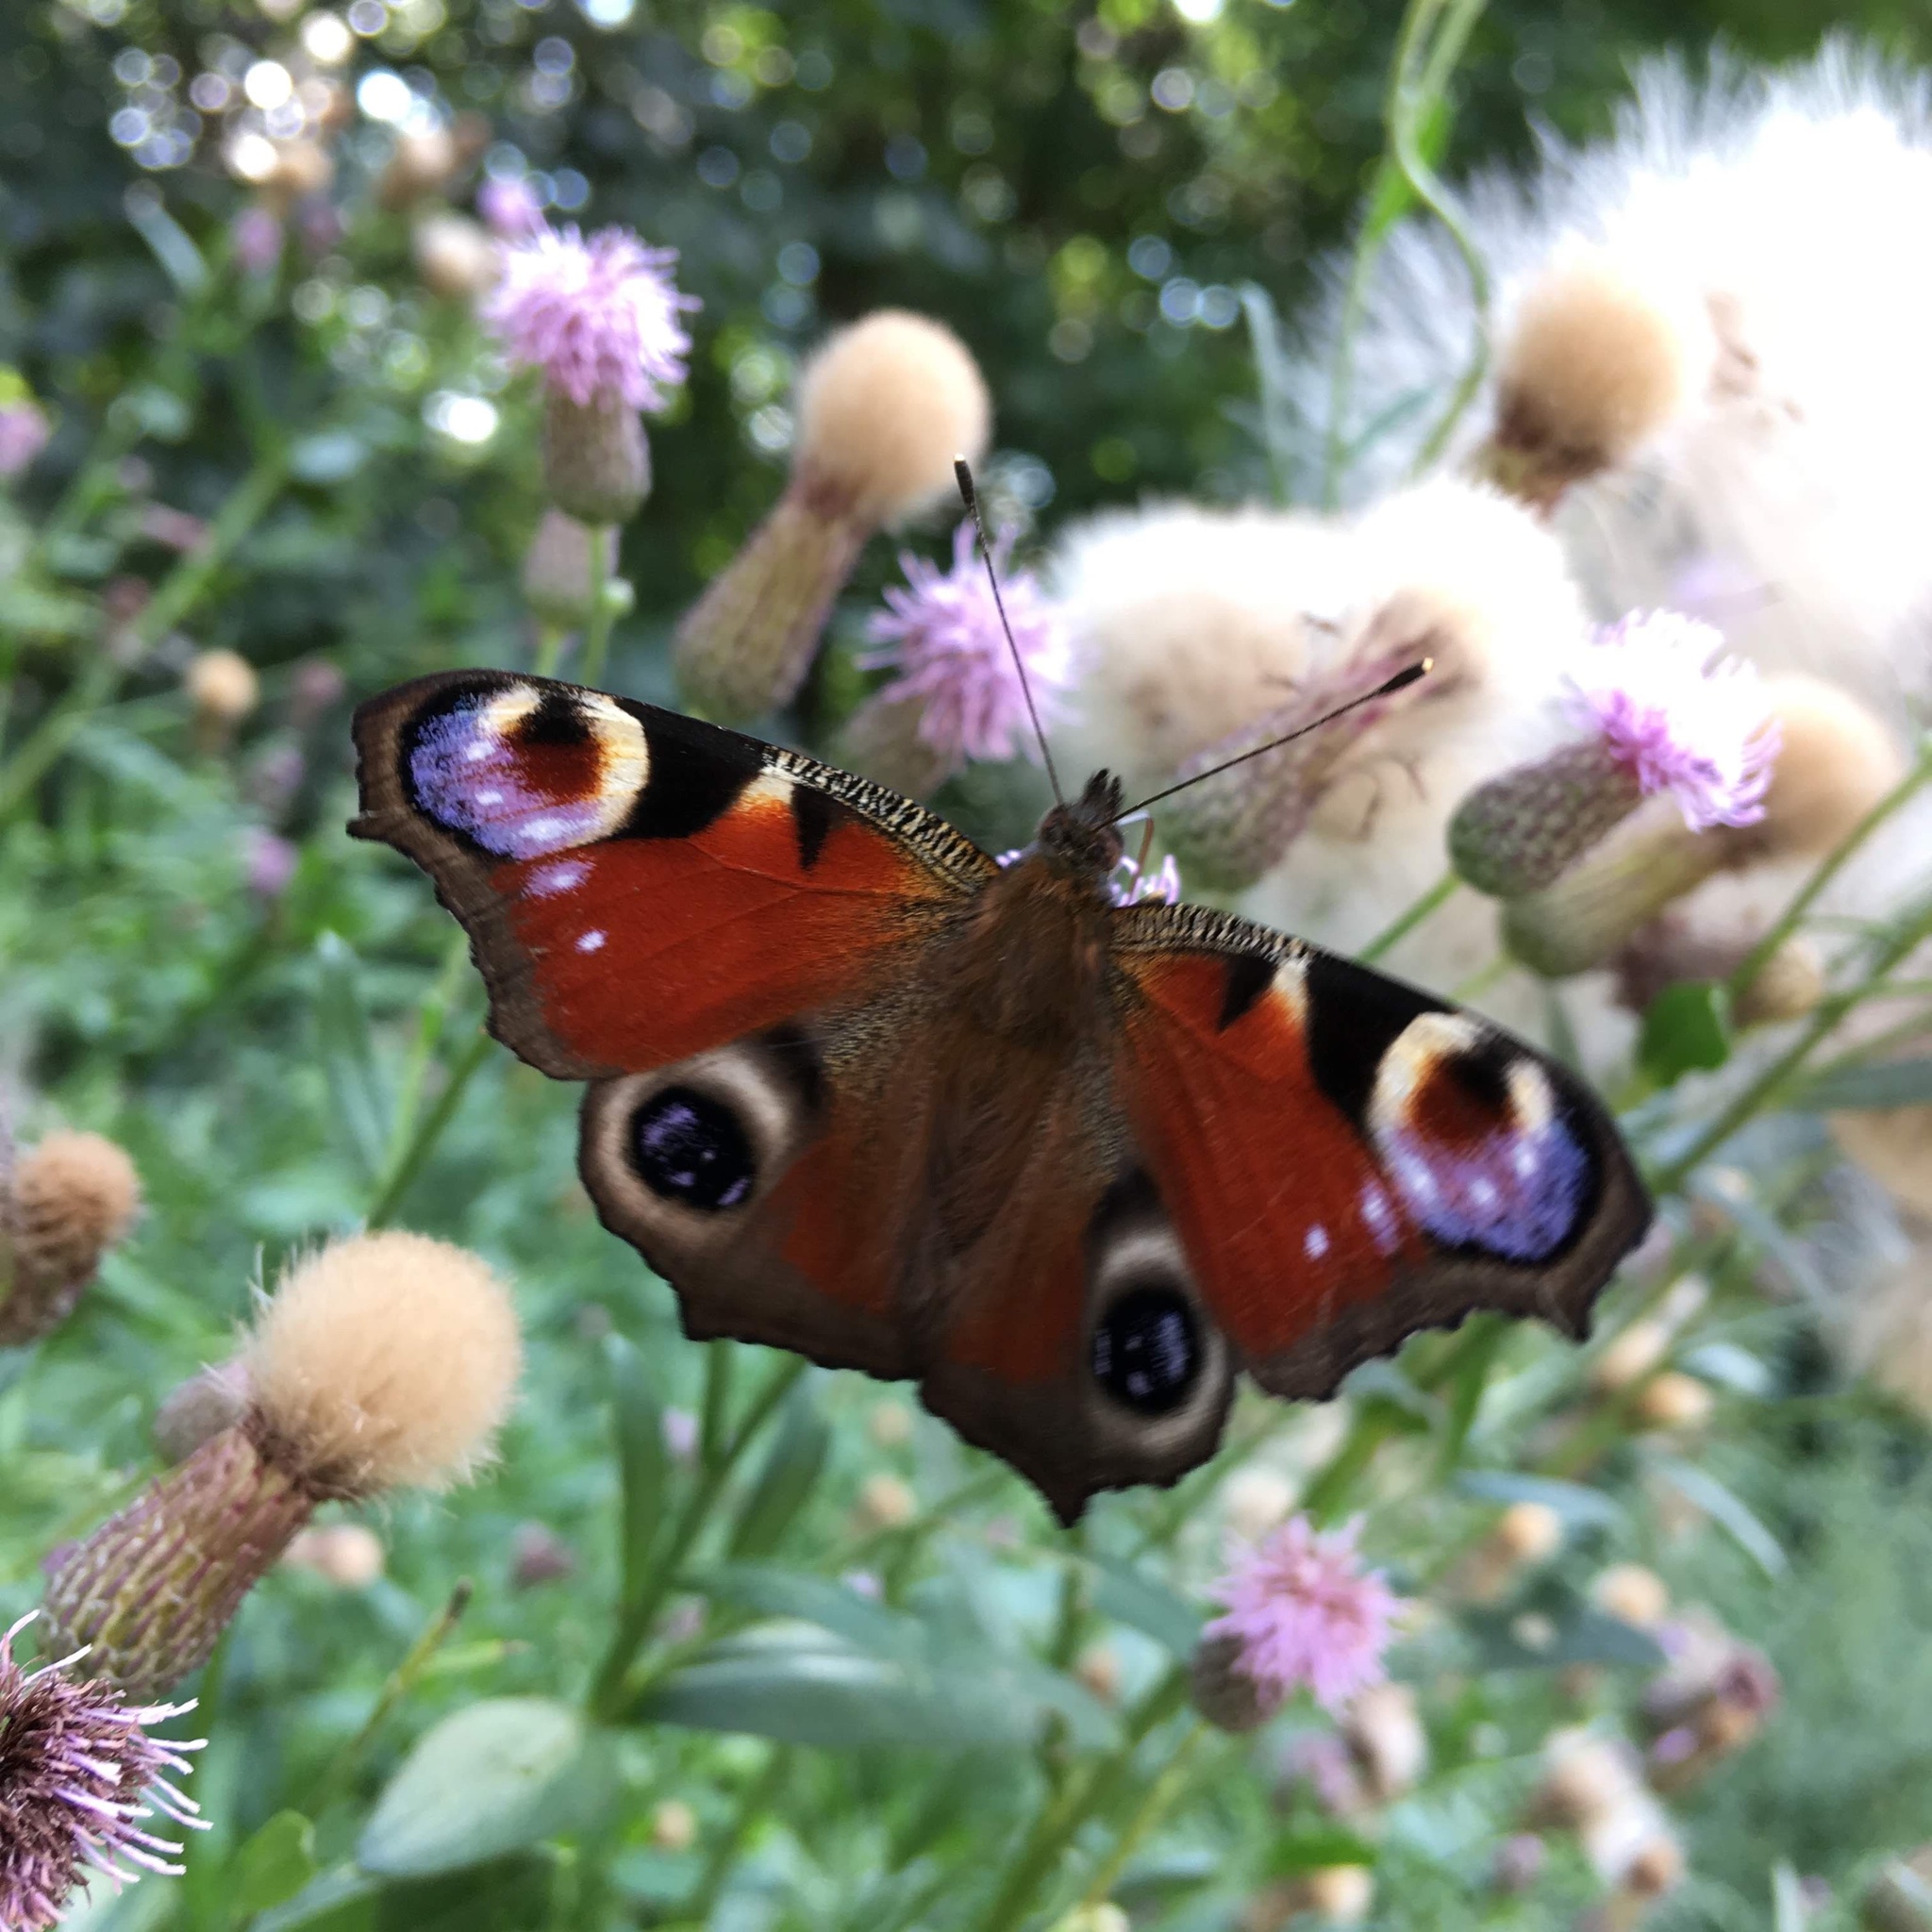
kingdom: Animalia
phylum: Arthropoda
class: Insecta
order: Lepidoptera
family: Nymphalidae
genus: Aglais
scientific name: Aglais io
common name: Peacock
